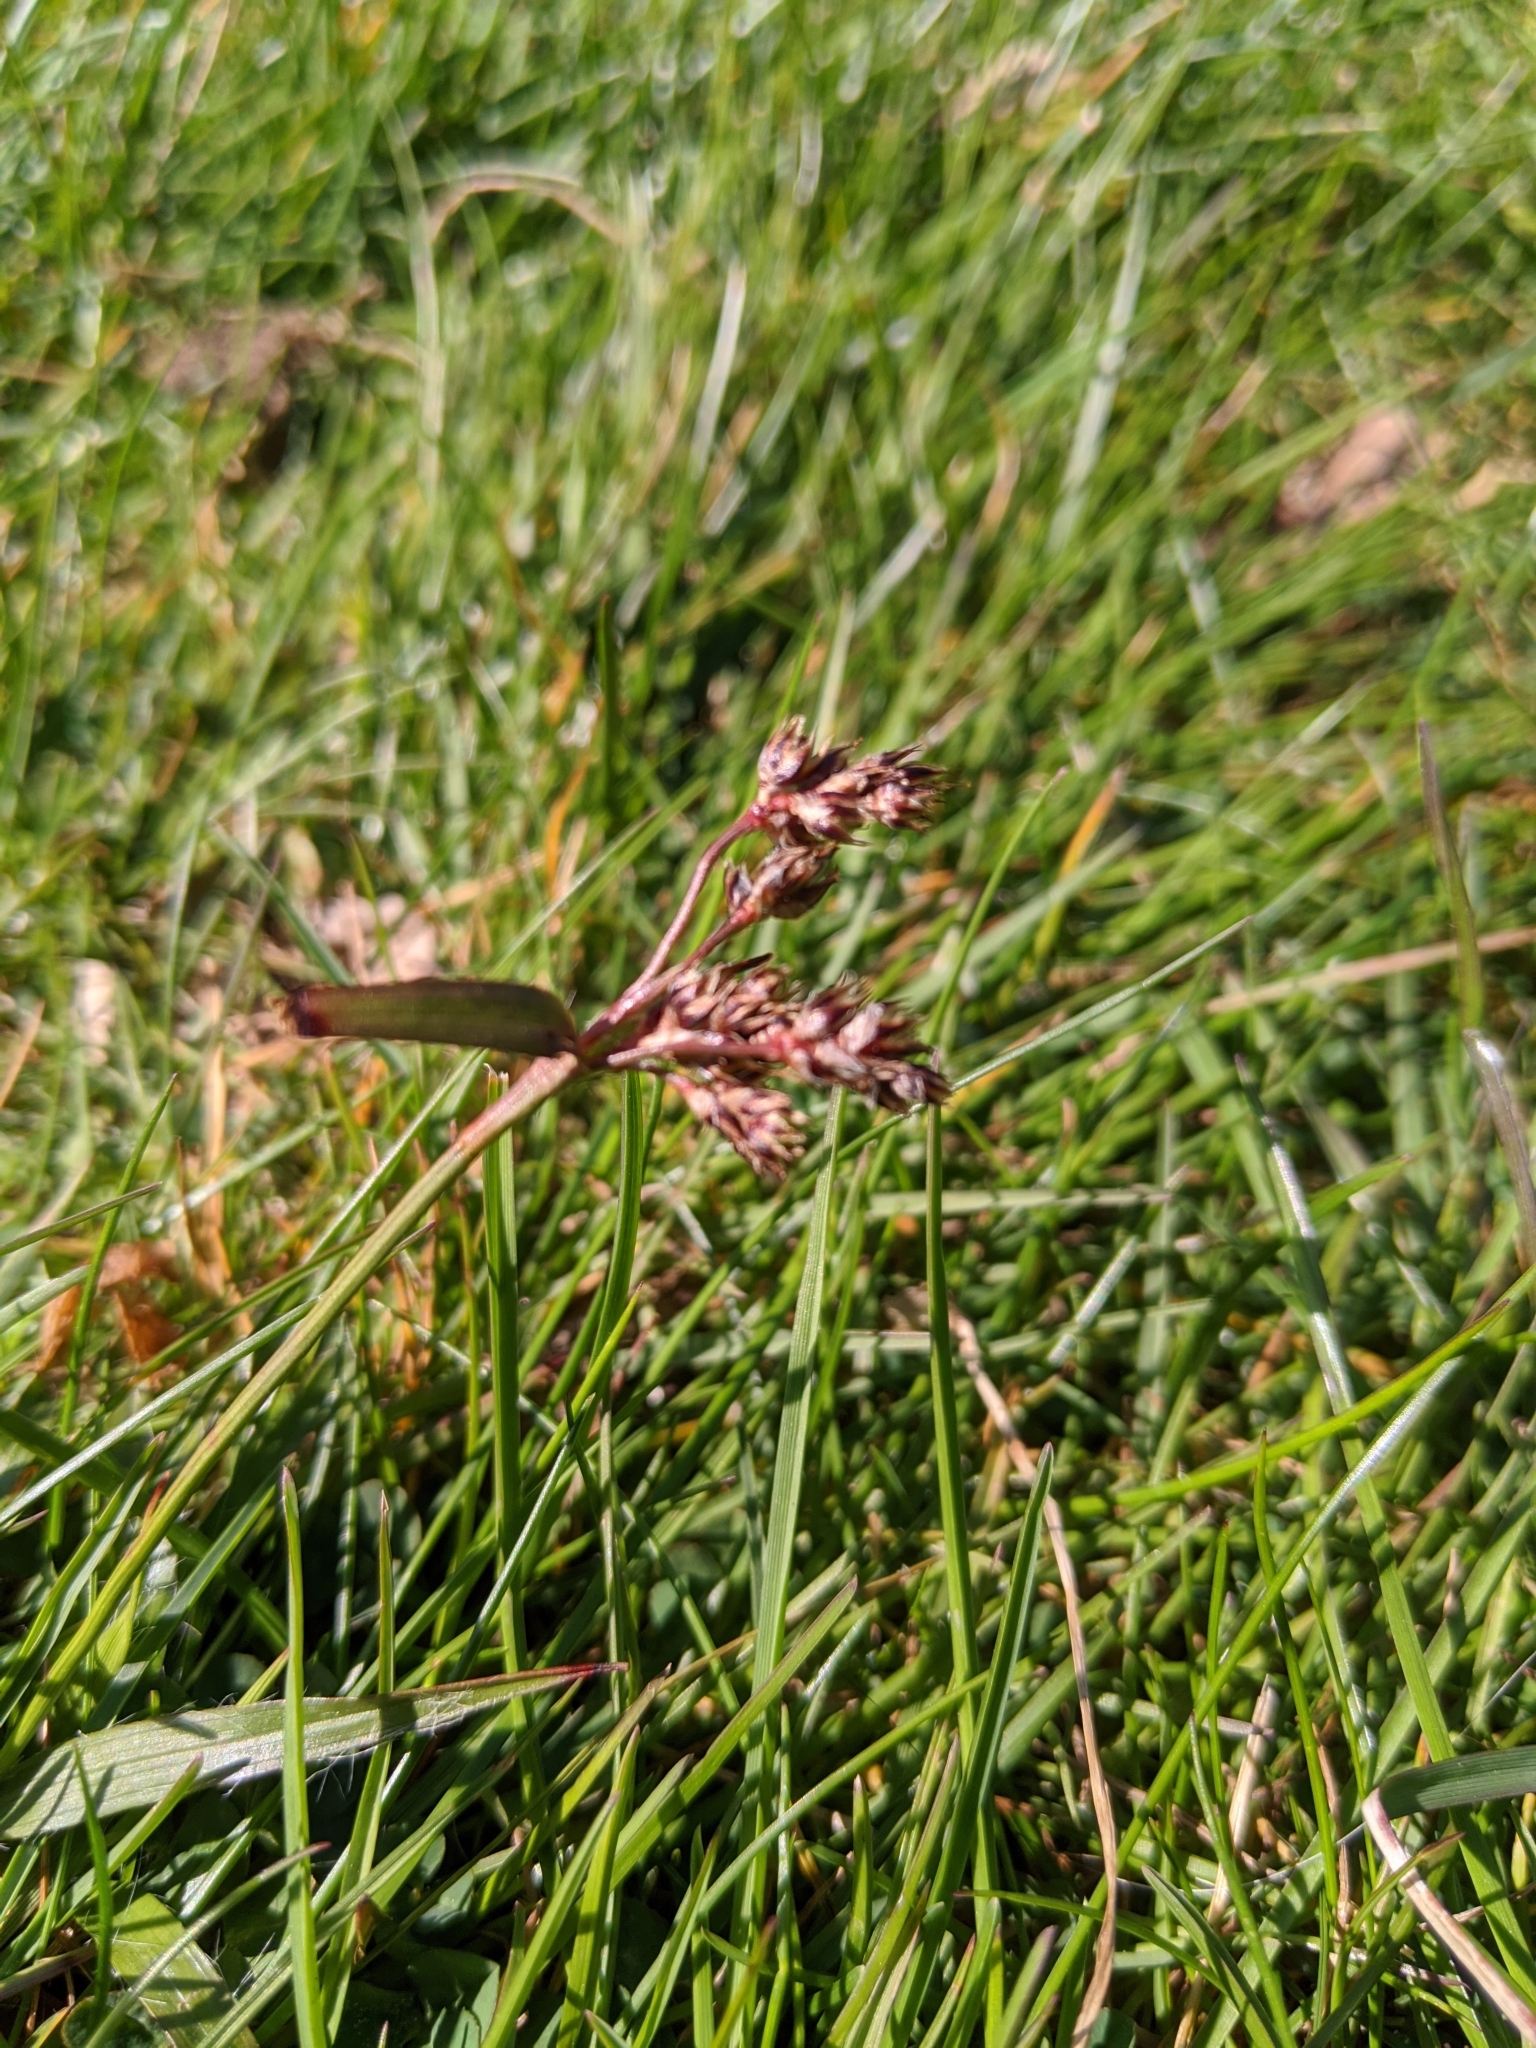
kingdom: Plantae
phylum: Tracheophyta
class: Liliopsida
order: Poales
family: Juncaceae
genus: Luzula
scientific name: Luzula campestris
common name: Field wood-rush
